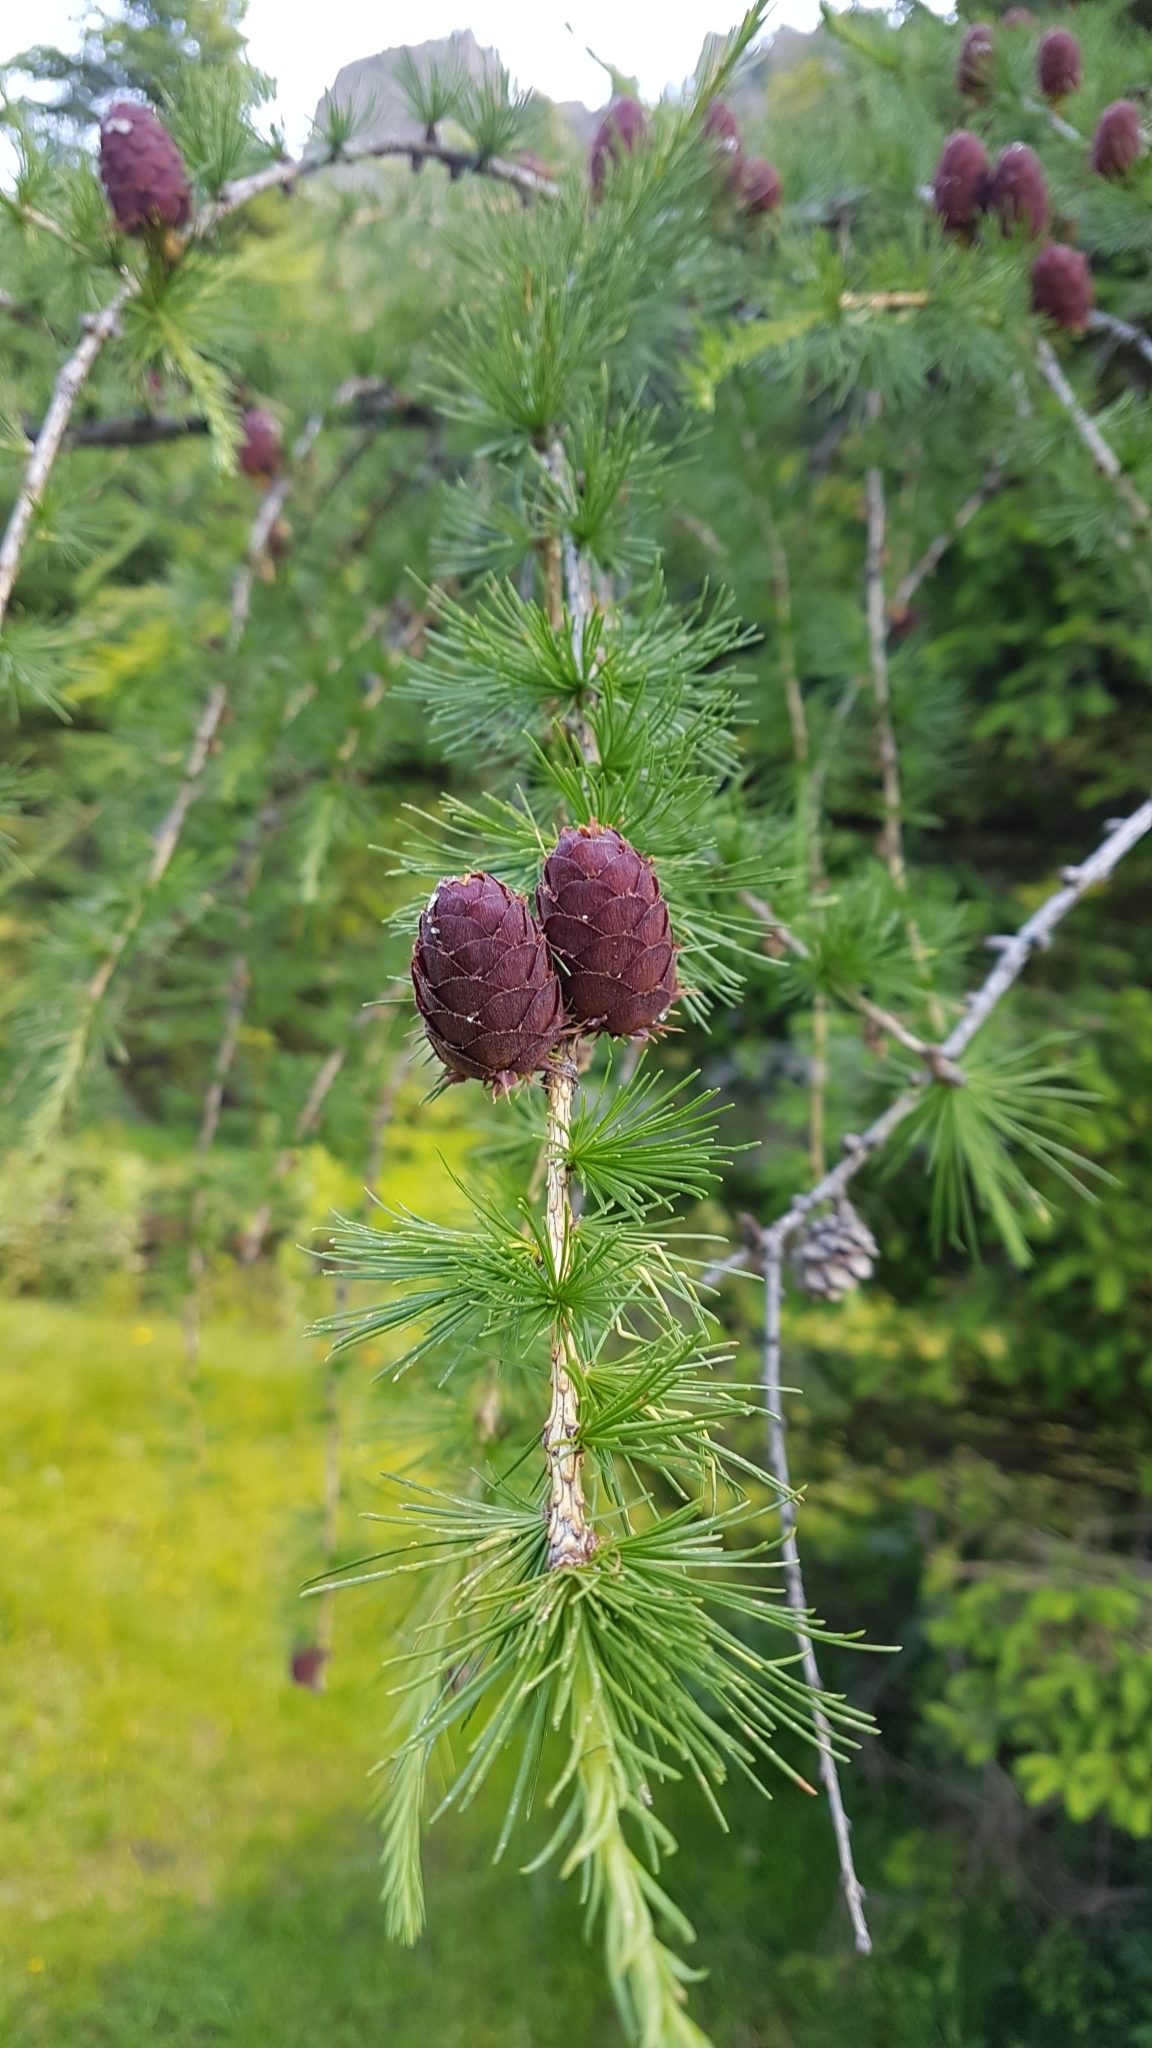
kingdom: Plantae
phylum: Tracheophyta
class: Pinopsida
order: Pinales
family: Pinaceae
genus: Larix
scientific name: Larix decidua
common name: European larch
